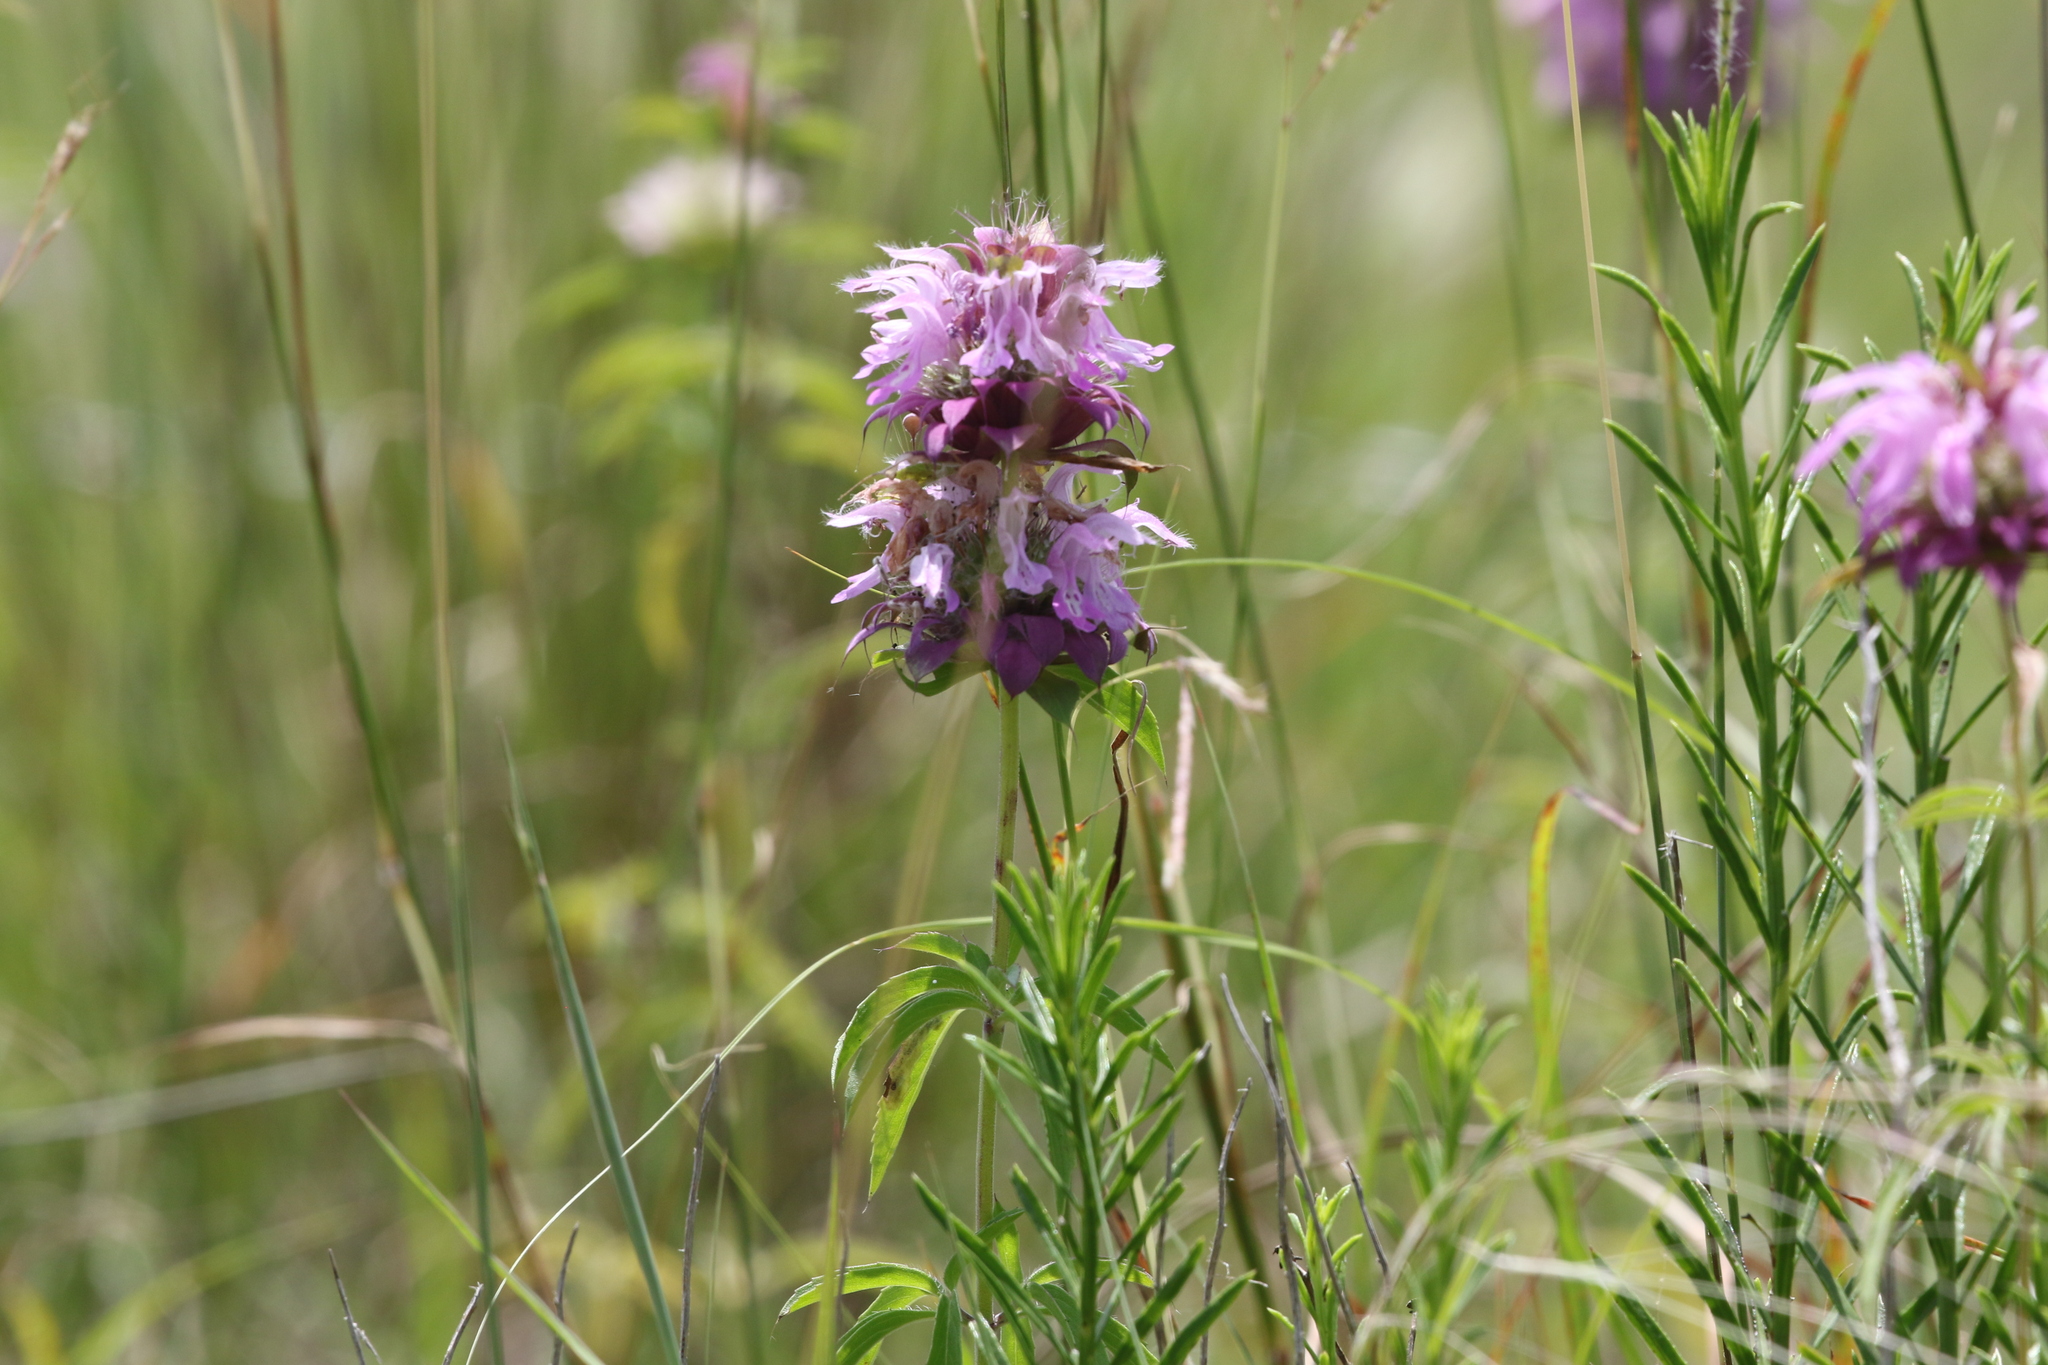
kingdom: Plantae
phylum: Tracheophyta
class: Magnoliopsida
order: Lamiales
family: Lamiaceae
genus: Monarda
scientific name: Monarda citriodora
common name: Lemon beebalm
